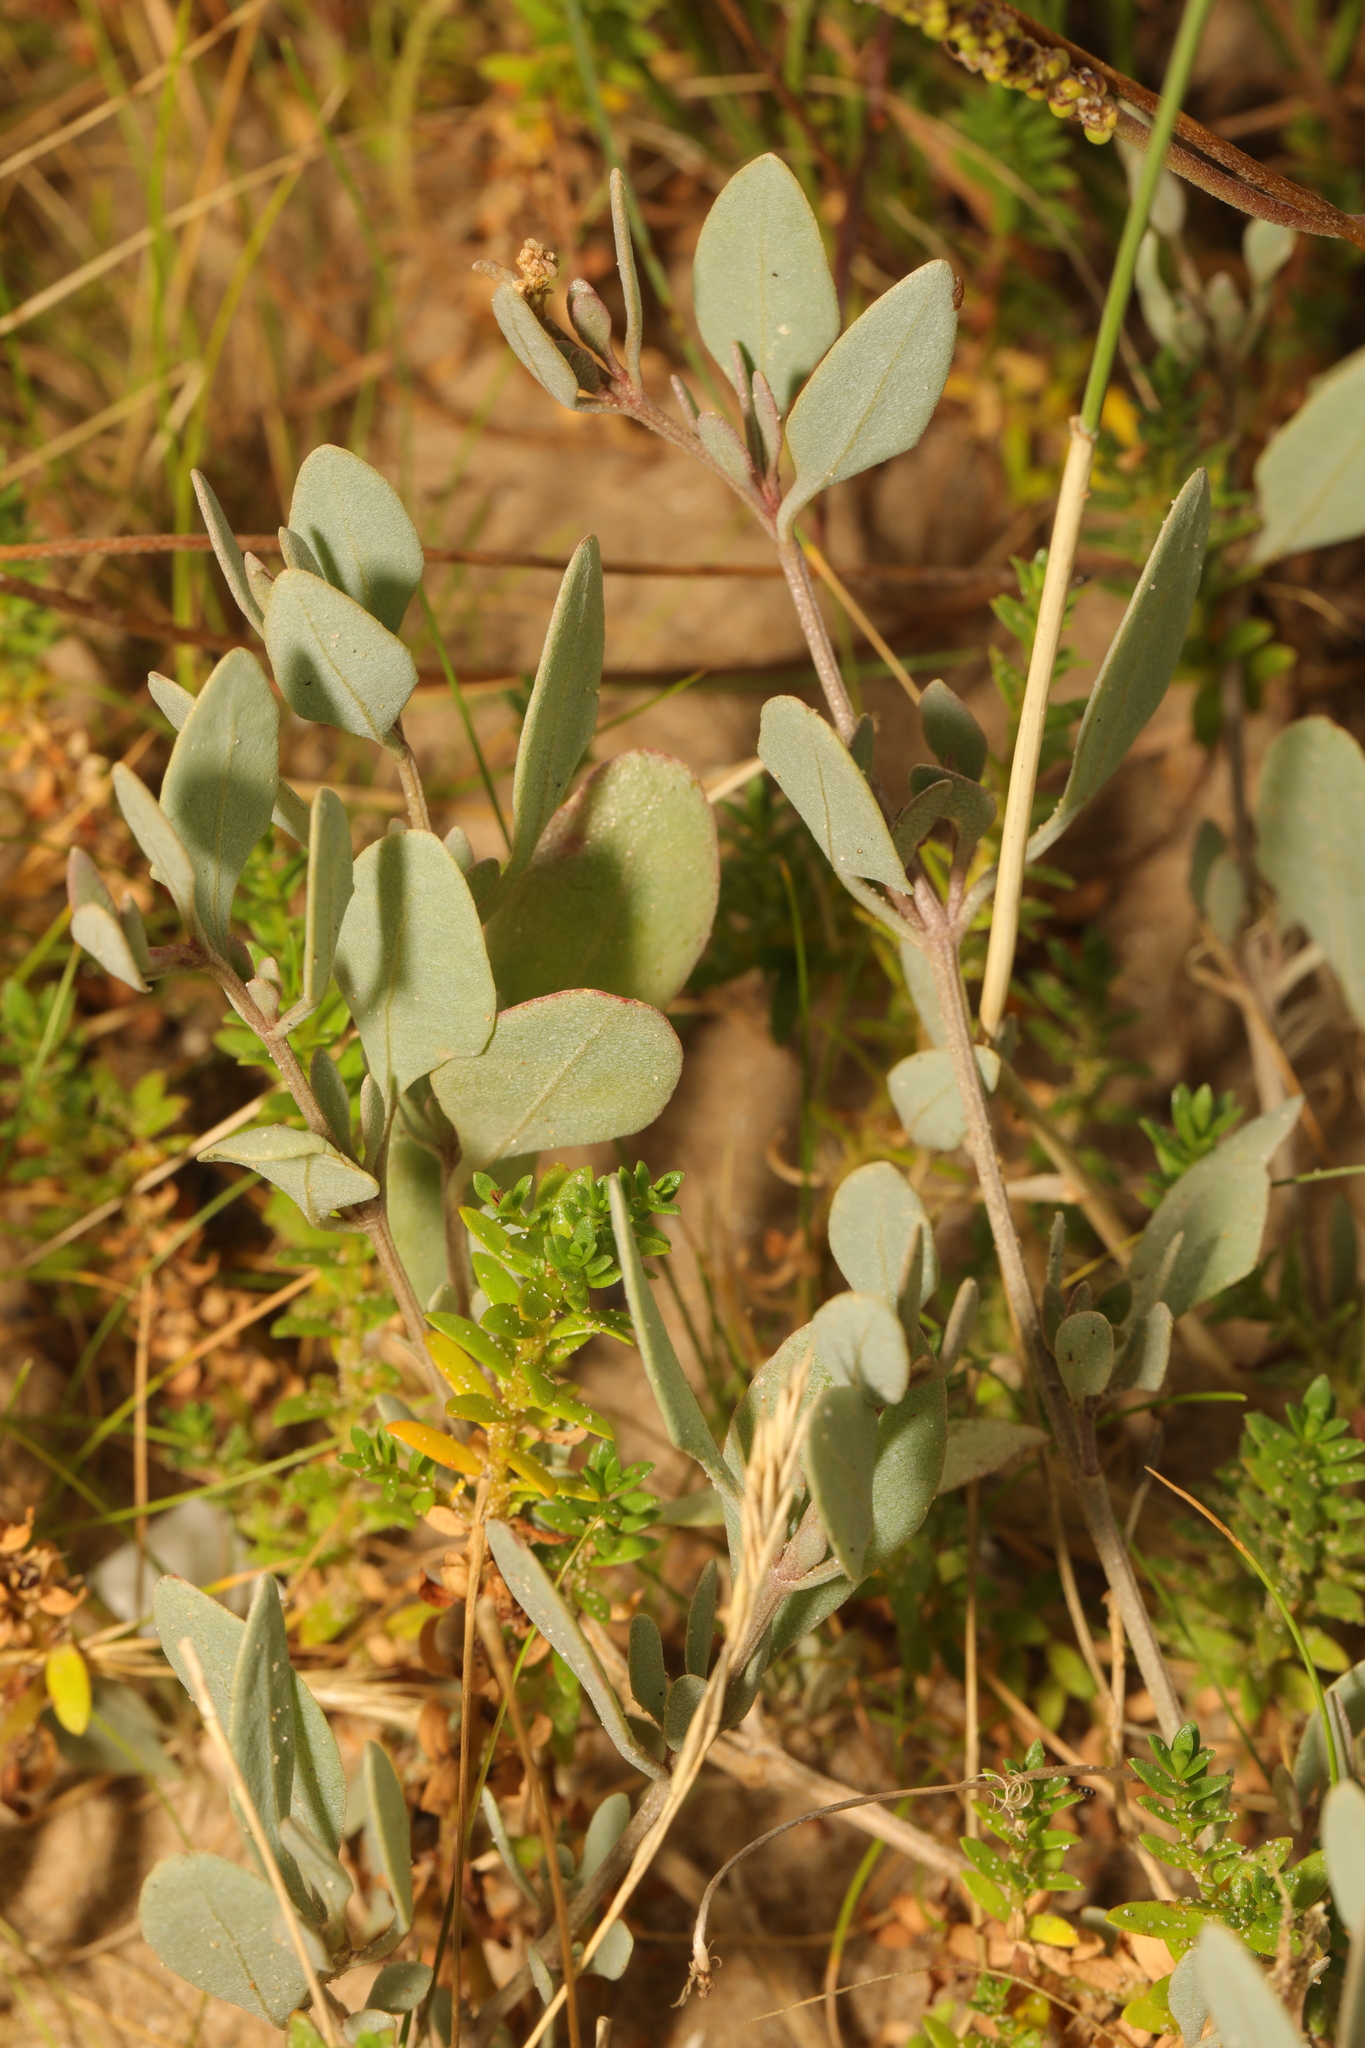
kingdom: Plantae
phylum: Tracheophyta
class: Magnoliopsida
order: Caryophyllales
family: Amaranthaceae
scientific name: Amaranthaceae
